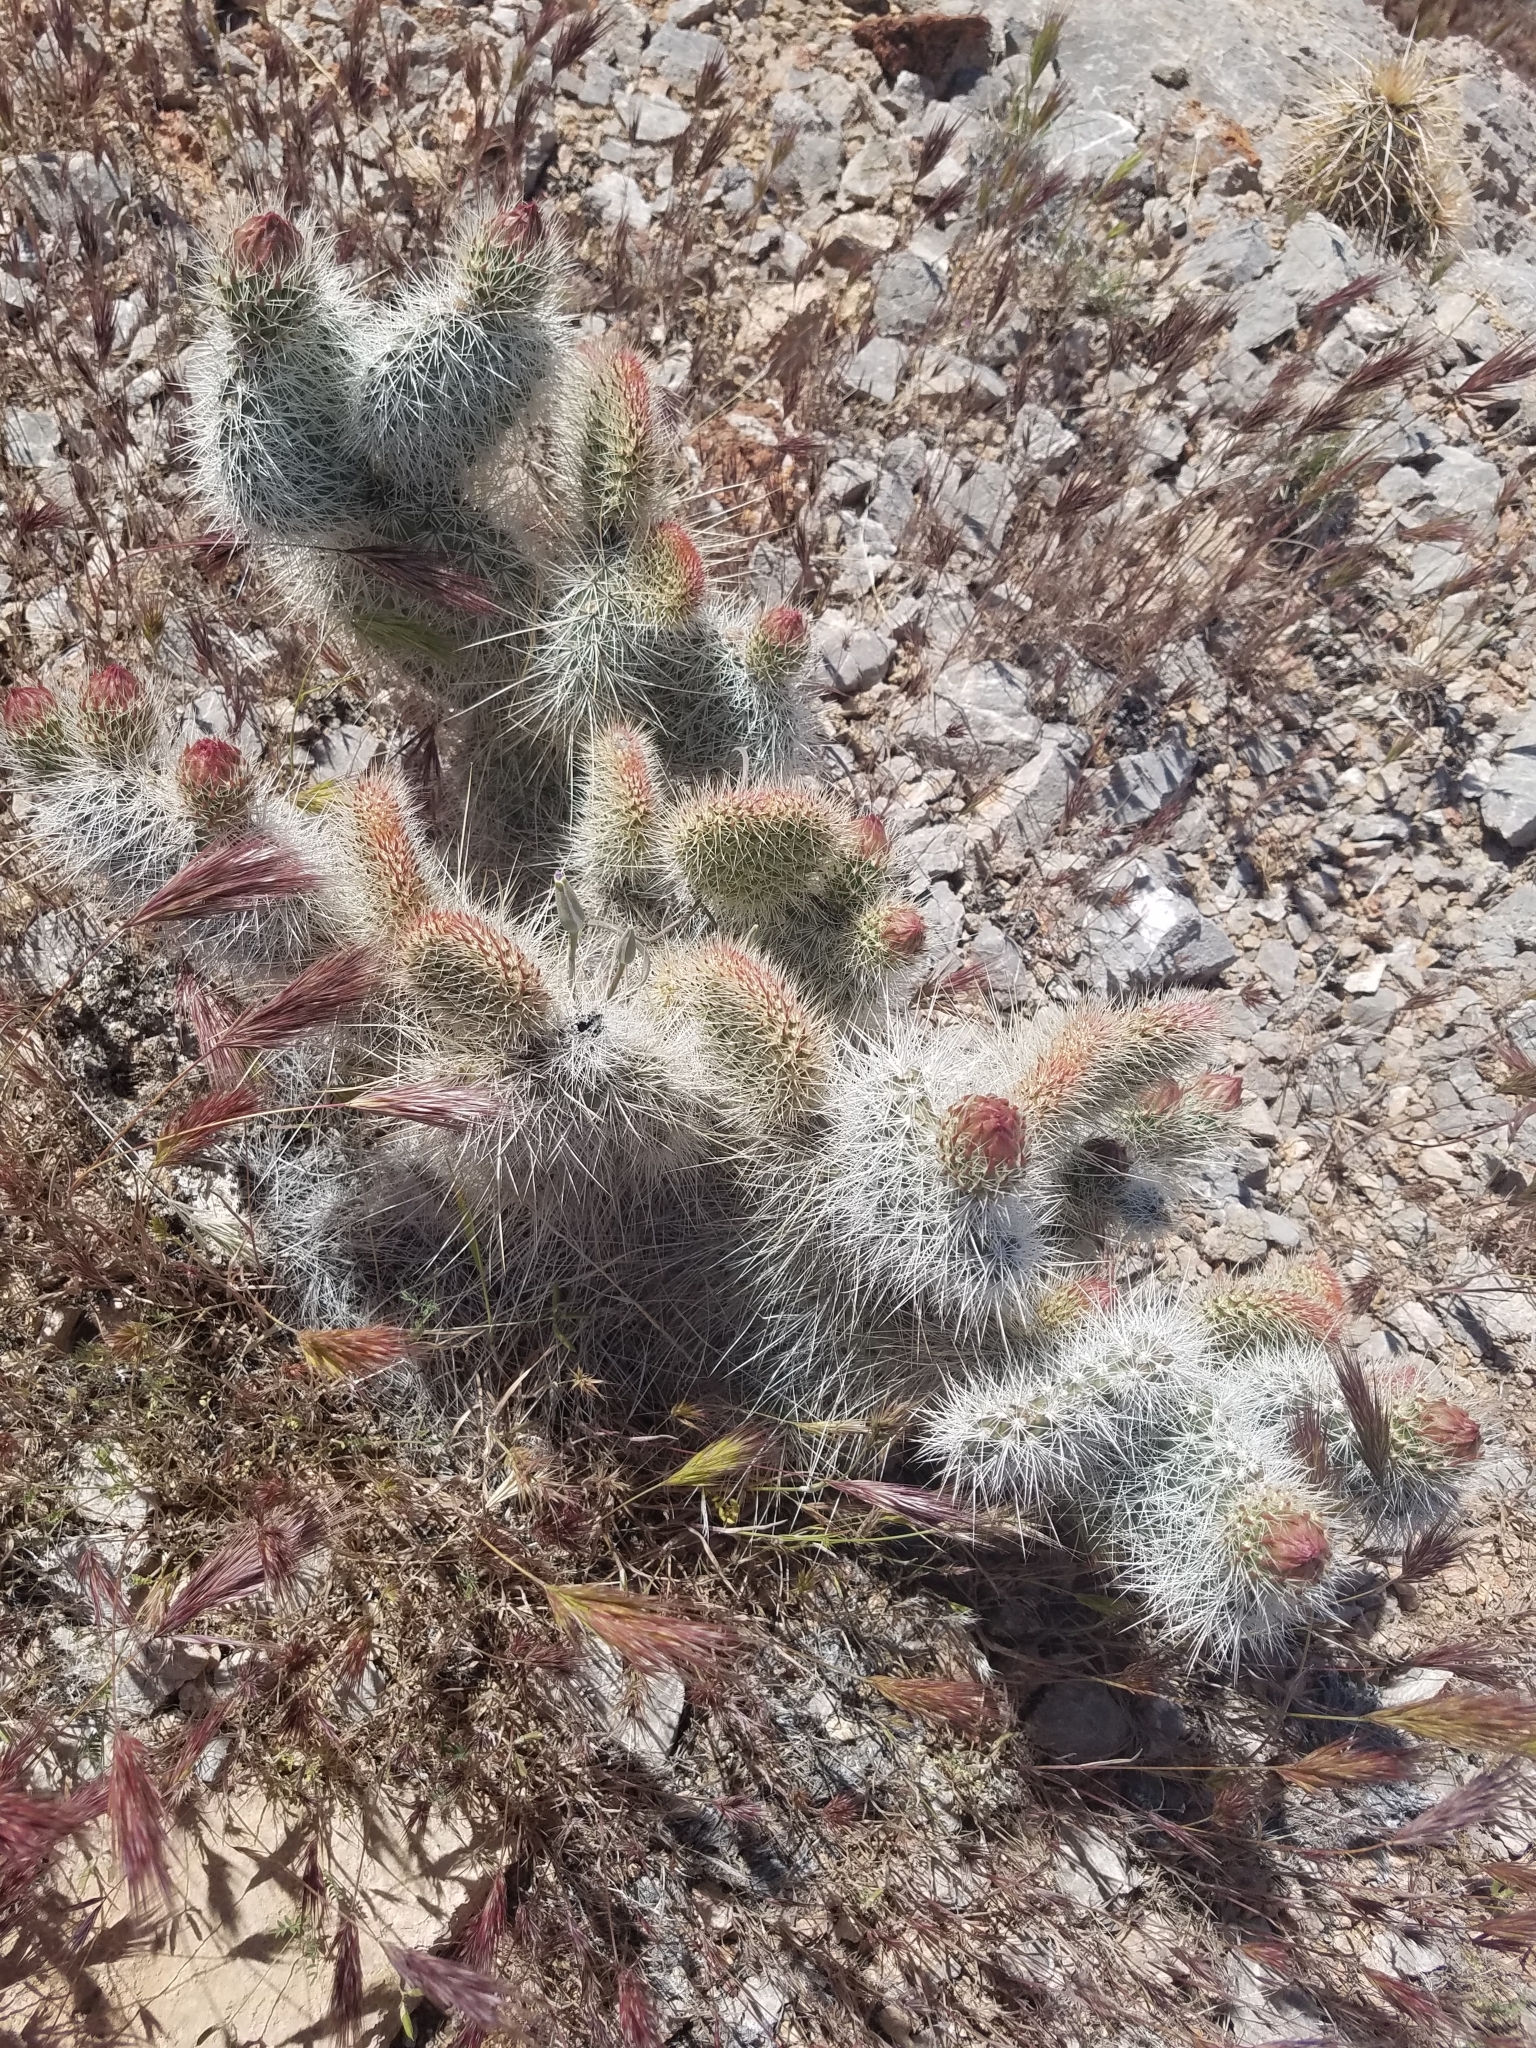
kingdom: Plantae
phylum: Tracheophyta
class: Magnoliopsida
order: Caryophyllales
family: Cactaceae
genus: Opuntia
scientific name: Opuntia polyacantha
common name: Plains prickly-pear
